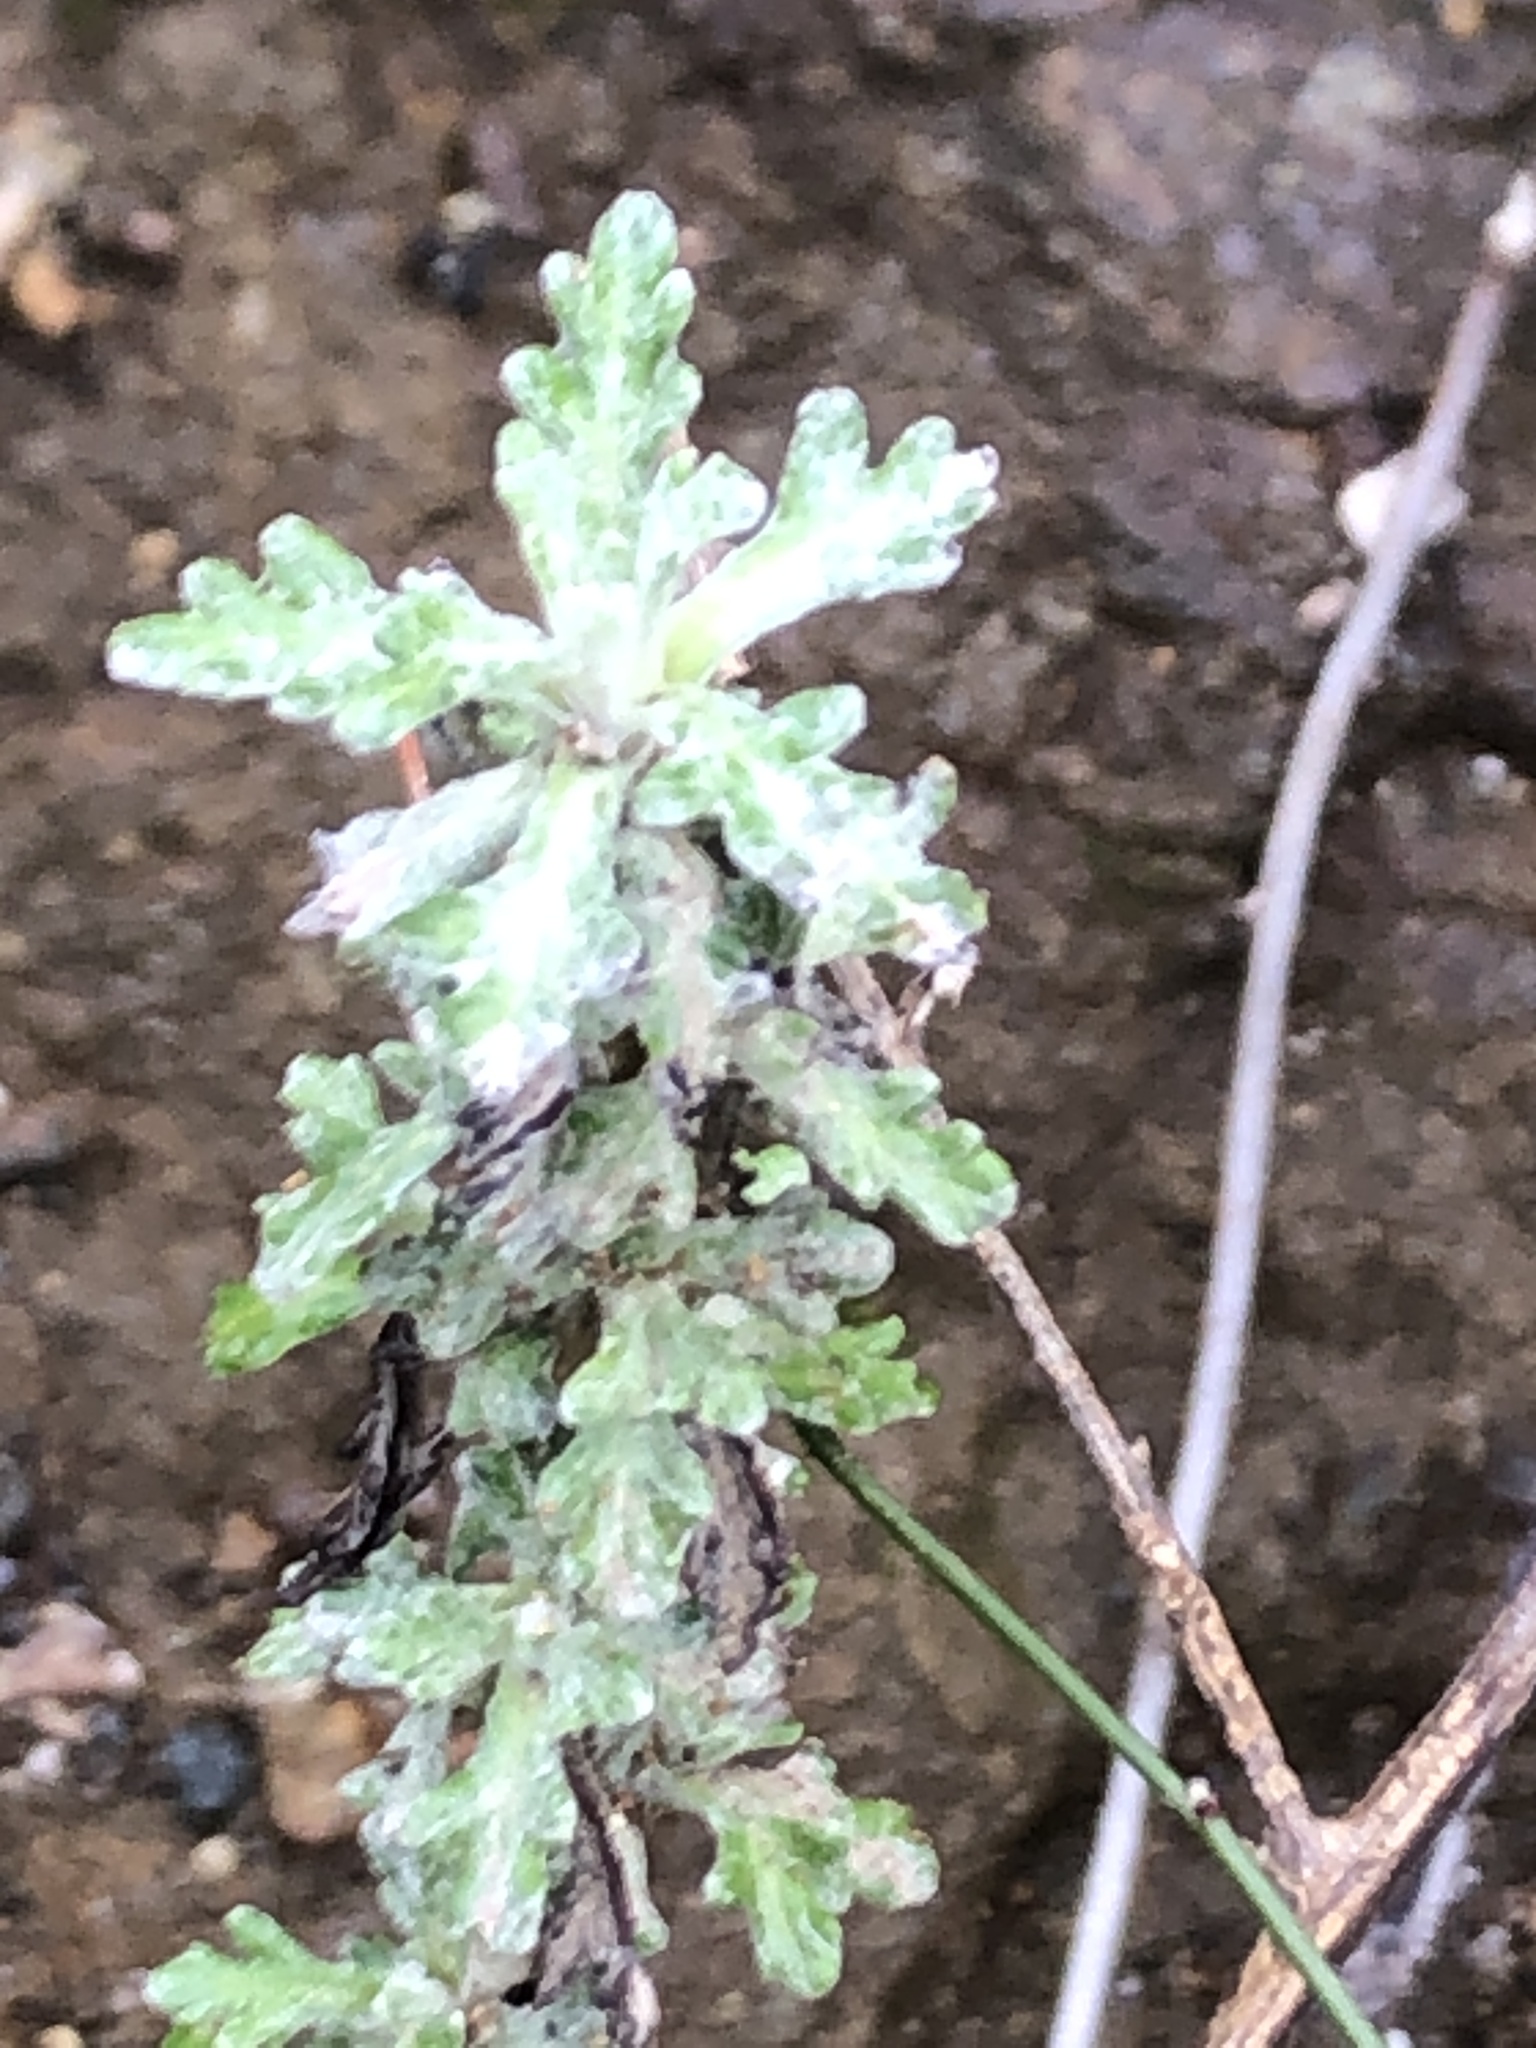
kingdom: Plantae
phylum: Tracheophyta
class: Magnoliopsida
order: Asterales
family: Asteraceae
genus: Eriophyllum
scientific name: Eriophyllum confertiflorum
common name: Golden-yarrow
